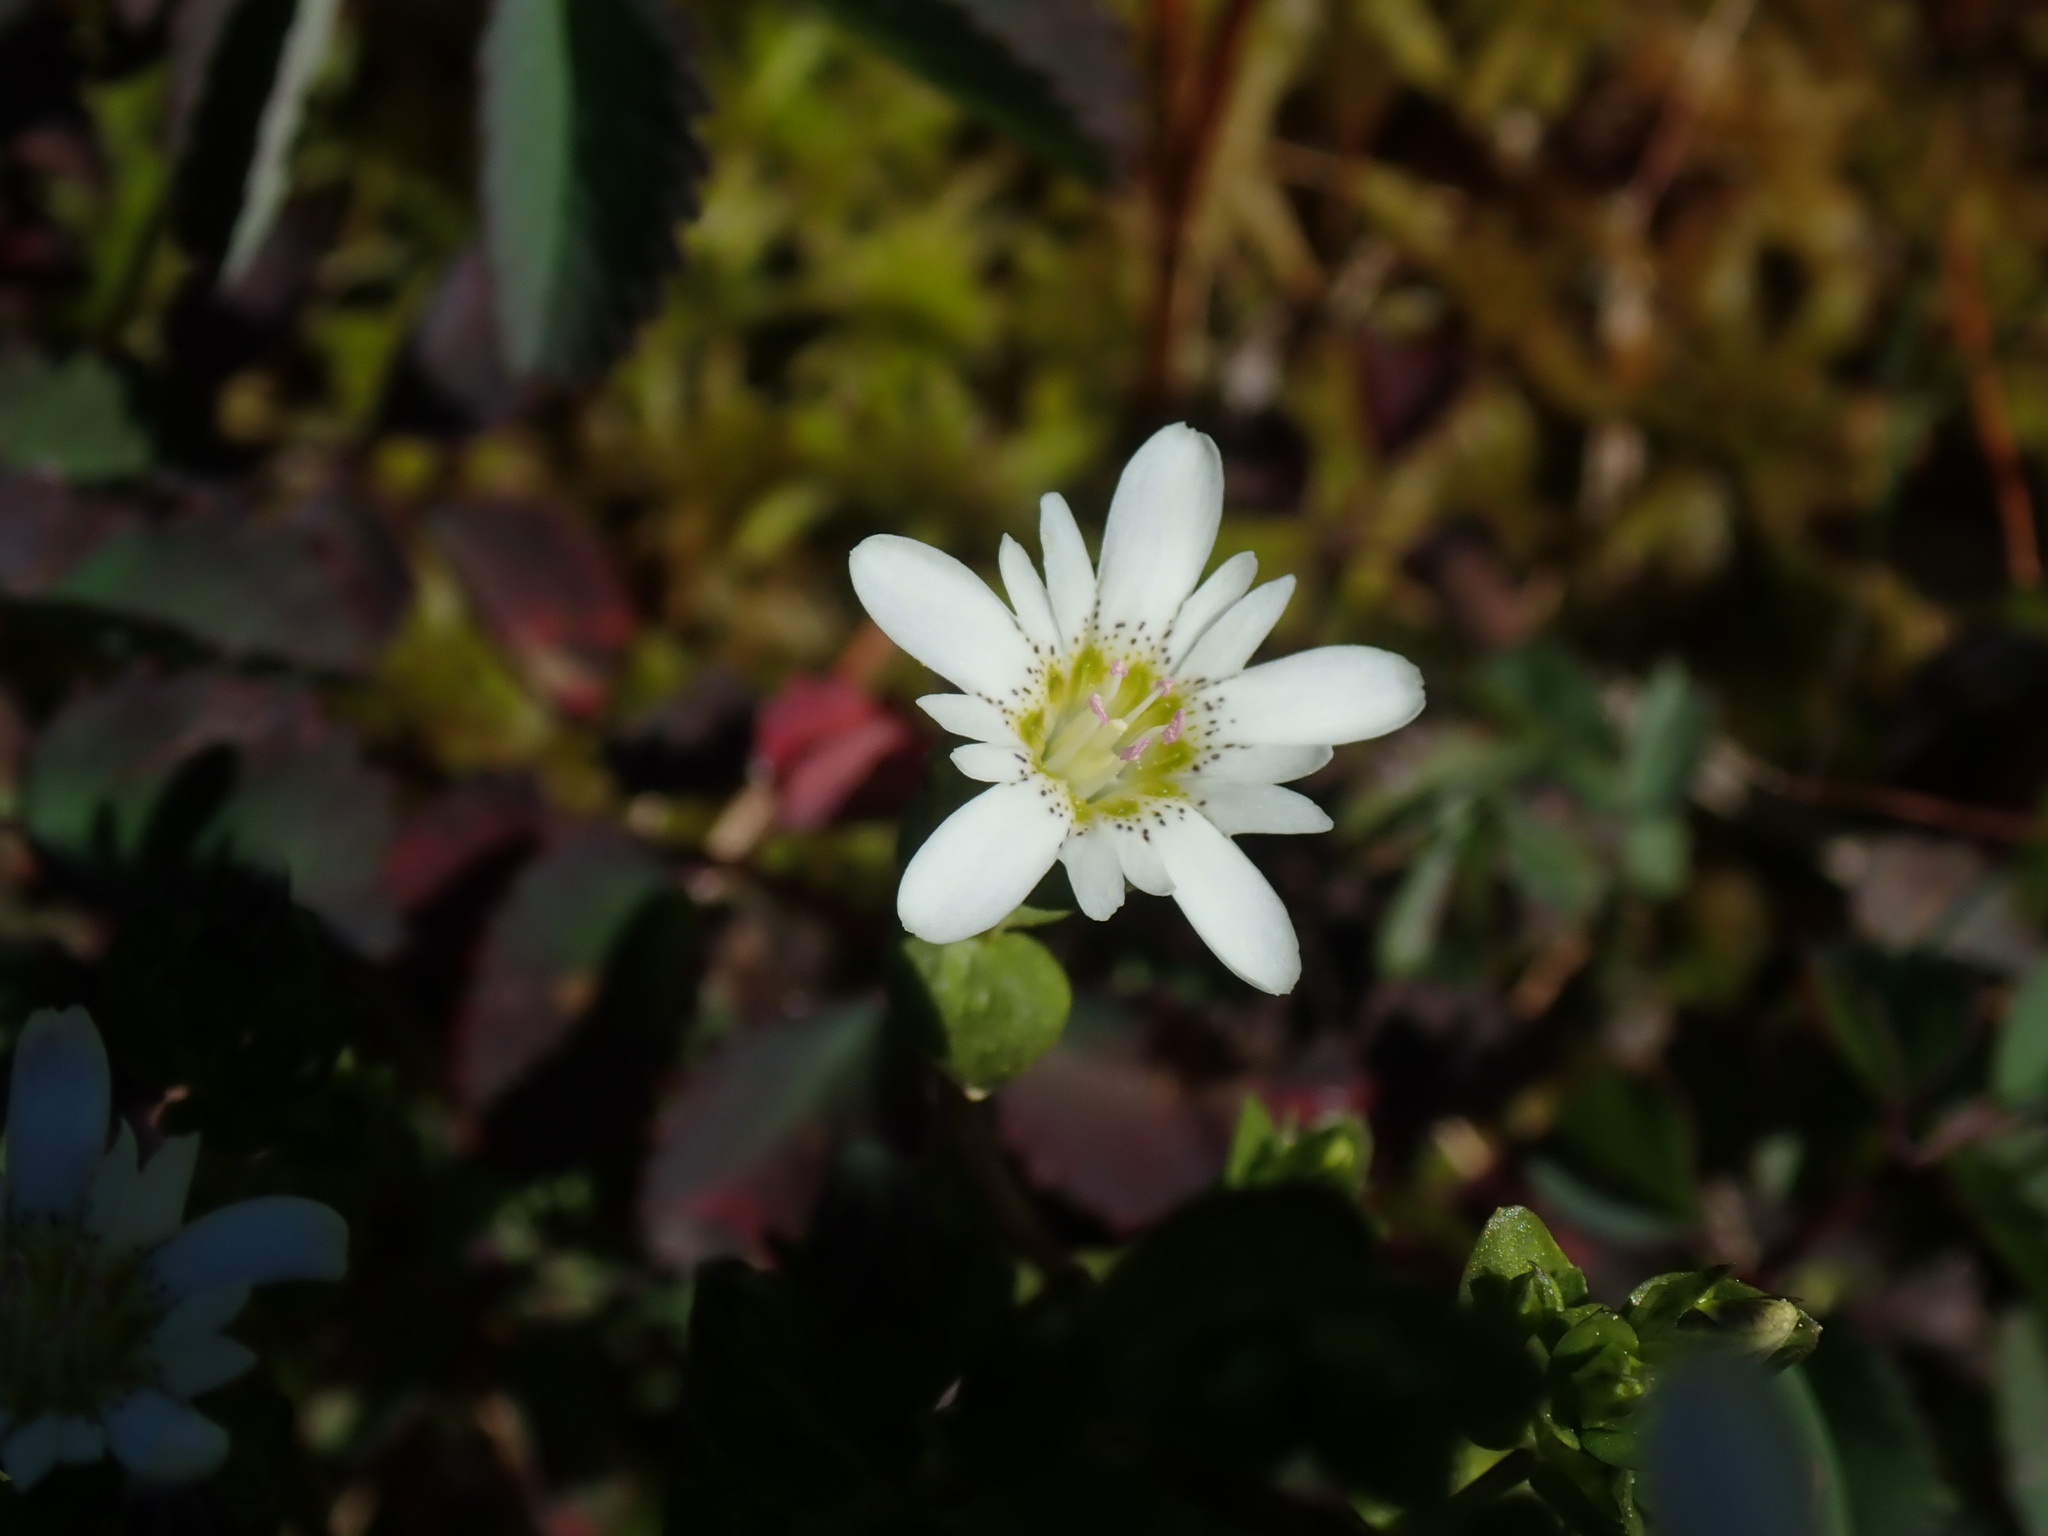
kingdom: Plantae
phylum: Tracheophyta
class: Magnoliopsida
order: Gentianales
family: Gentianaceae
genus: Gentiana
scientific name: Gentiana douglasiana
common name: Swamp gentian
